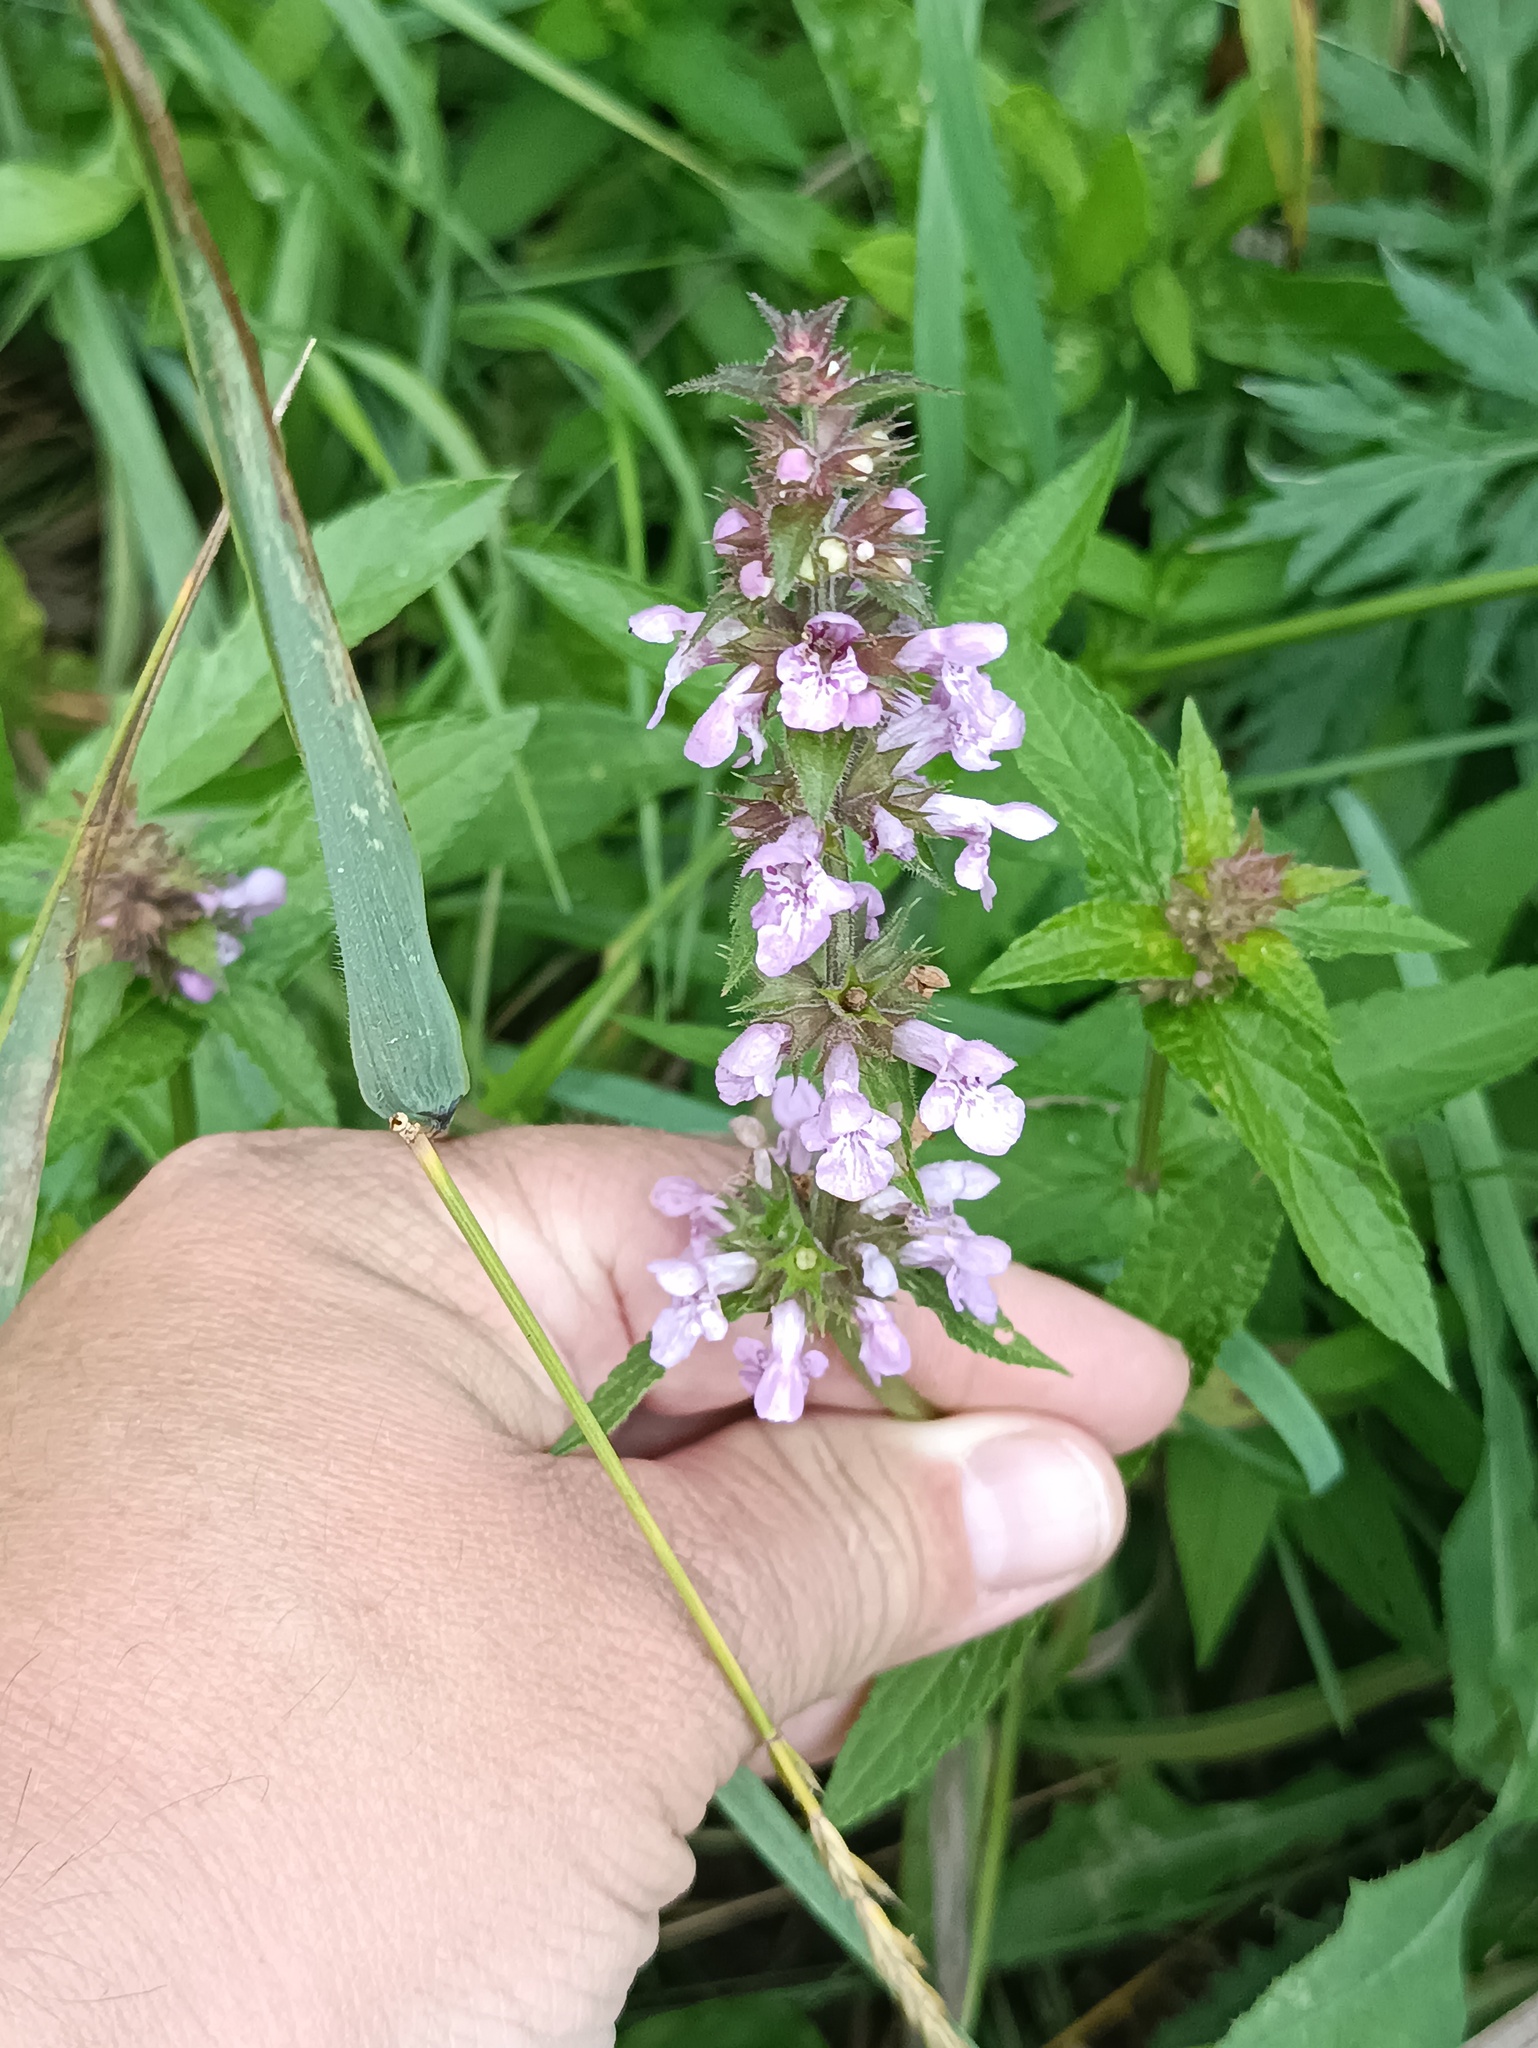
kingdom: Plantae
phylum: Tracheophyta
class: Magnoliopsida
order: Lamiales
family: Lamiaceae
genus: Stachys
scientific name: Stachys palustris
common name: Marsh woundwort
